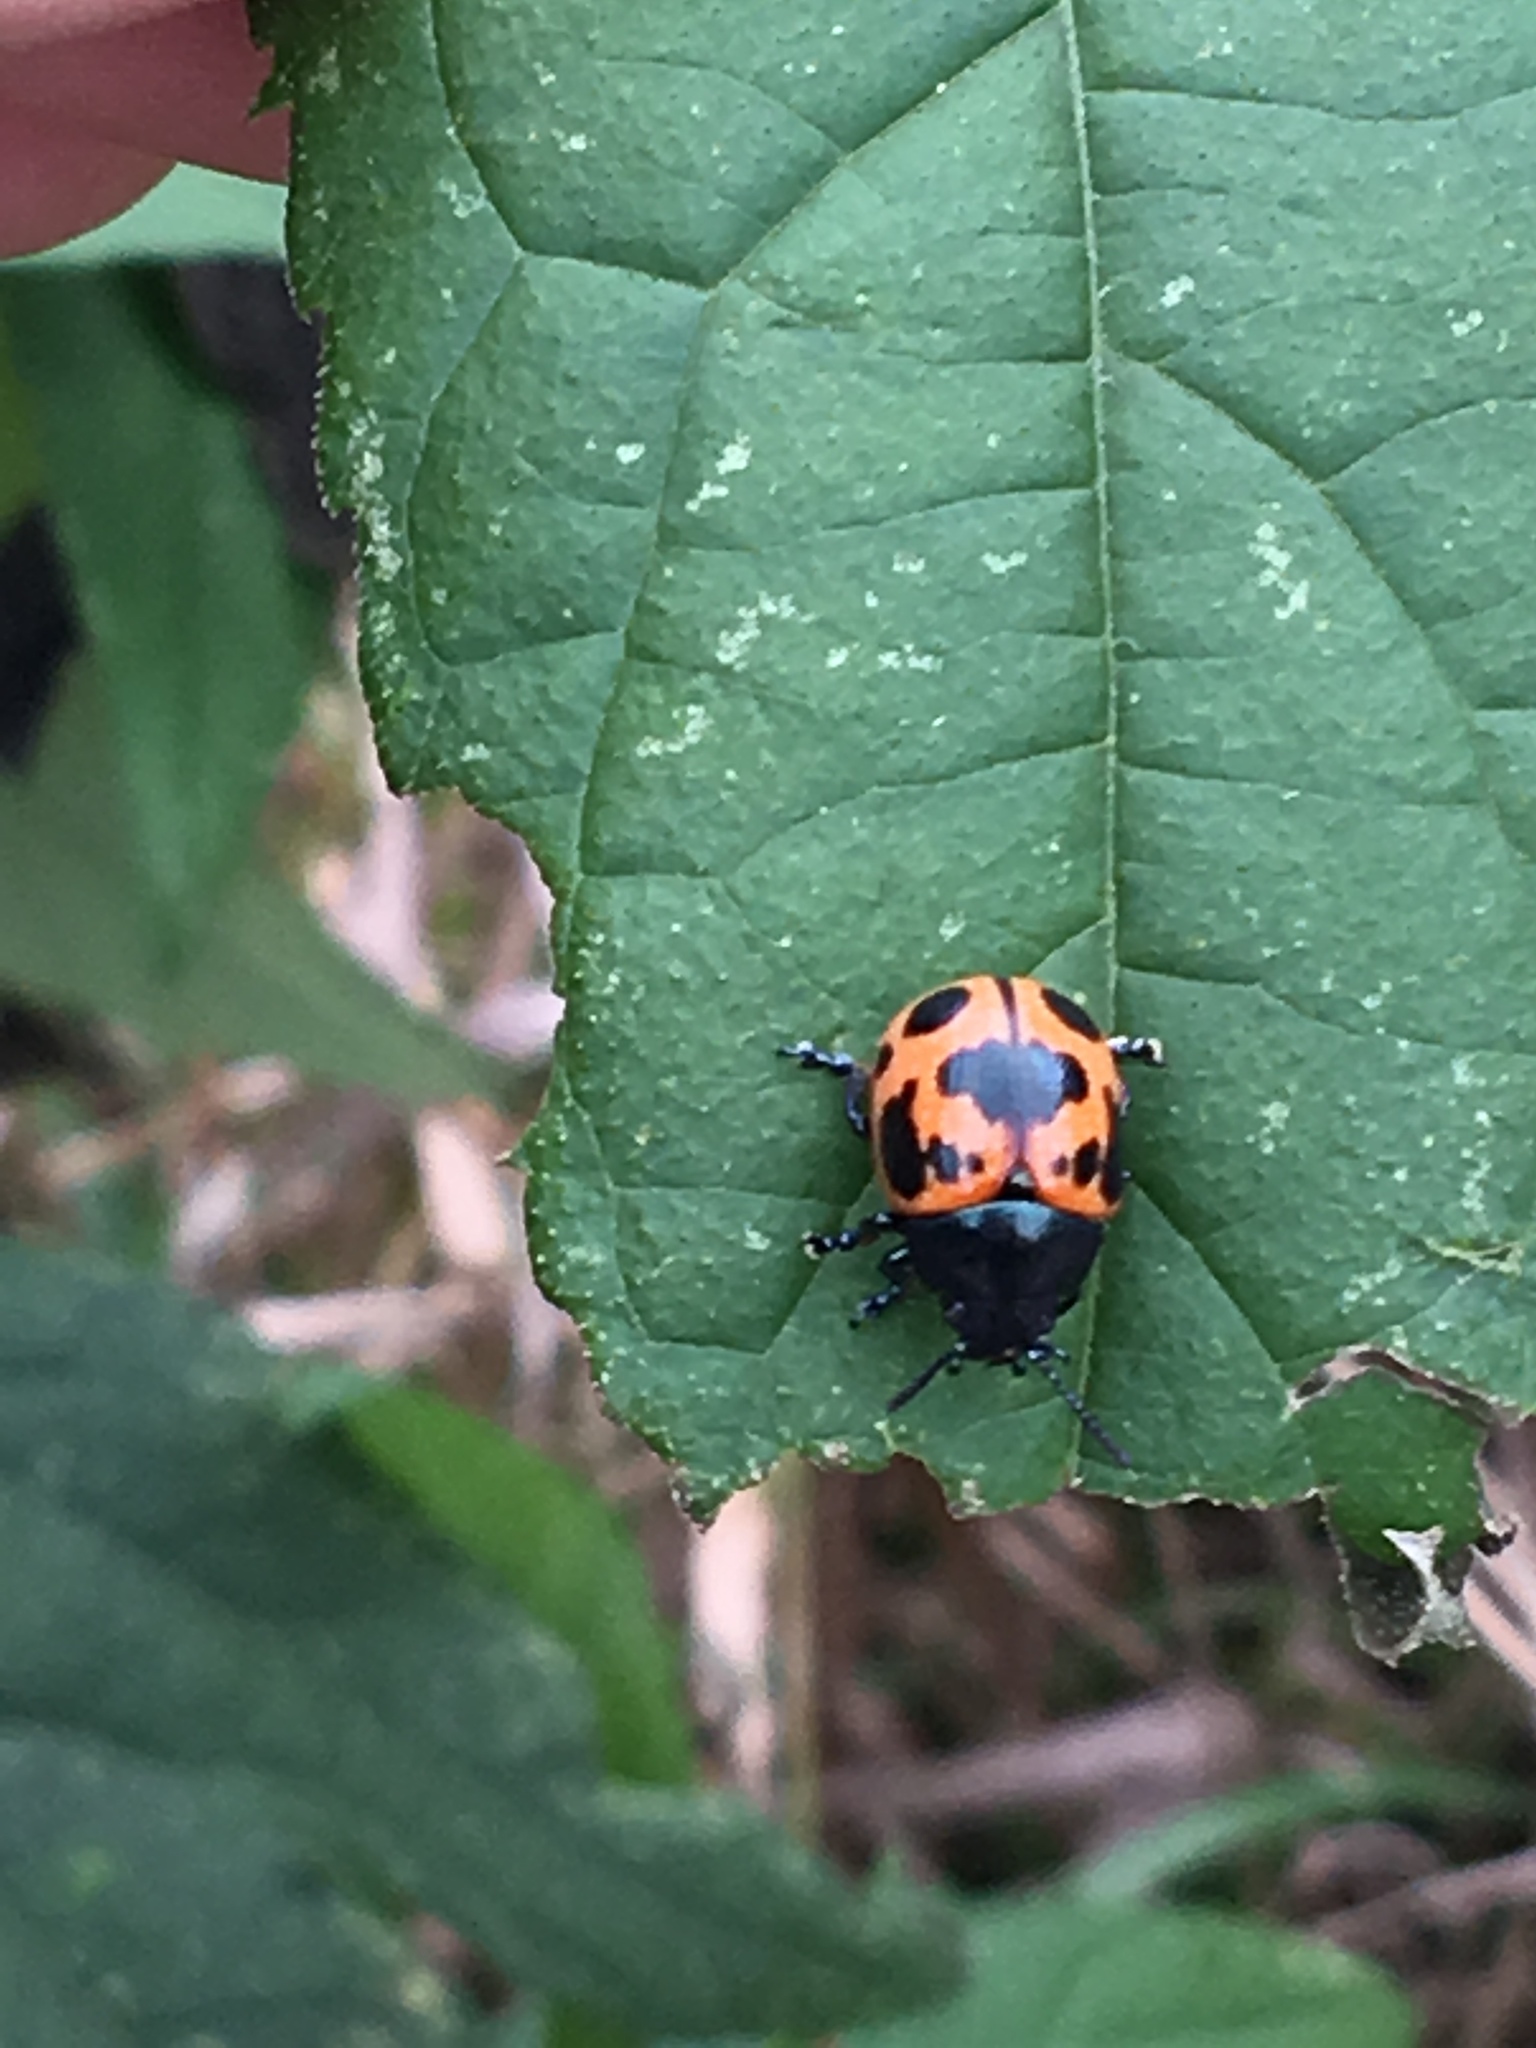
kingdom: Animalia
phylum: Arthropoda
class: Insecta
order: Coleoptera
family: Chrysomelidae
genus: Labidomera
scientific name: Labidomera clivicollis
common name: Swamp milkweed leaf beetle
